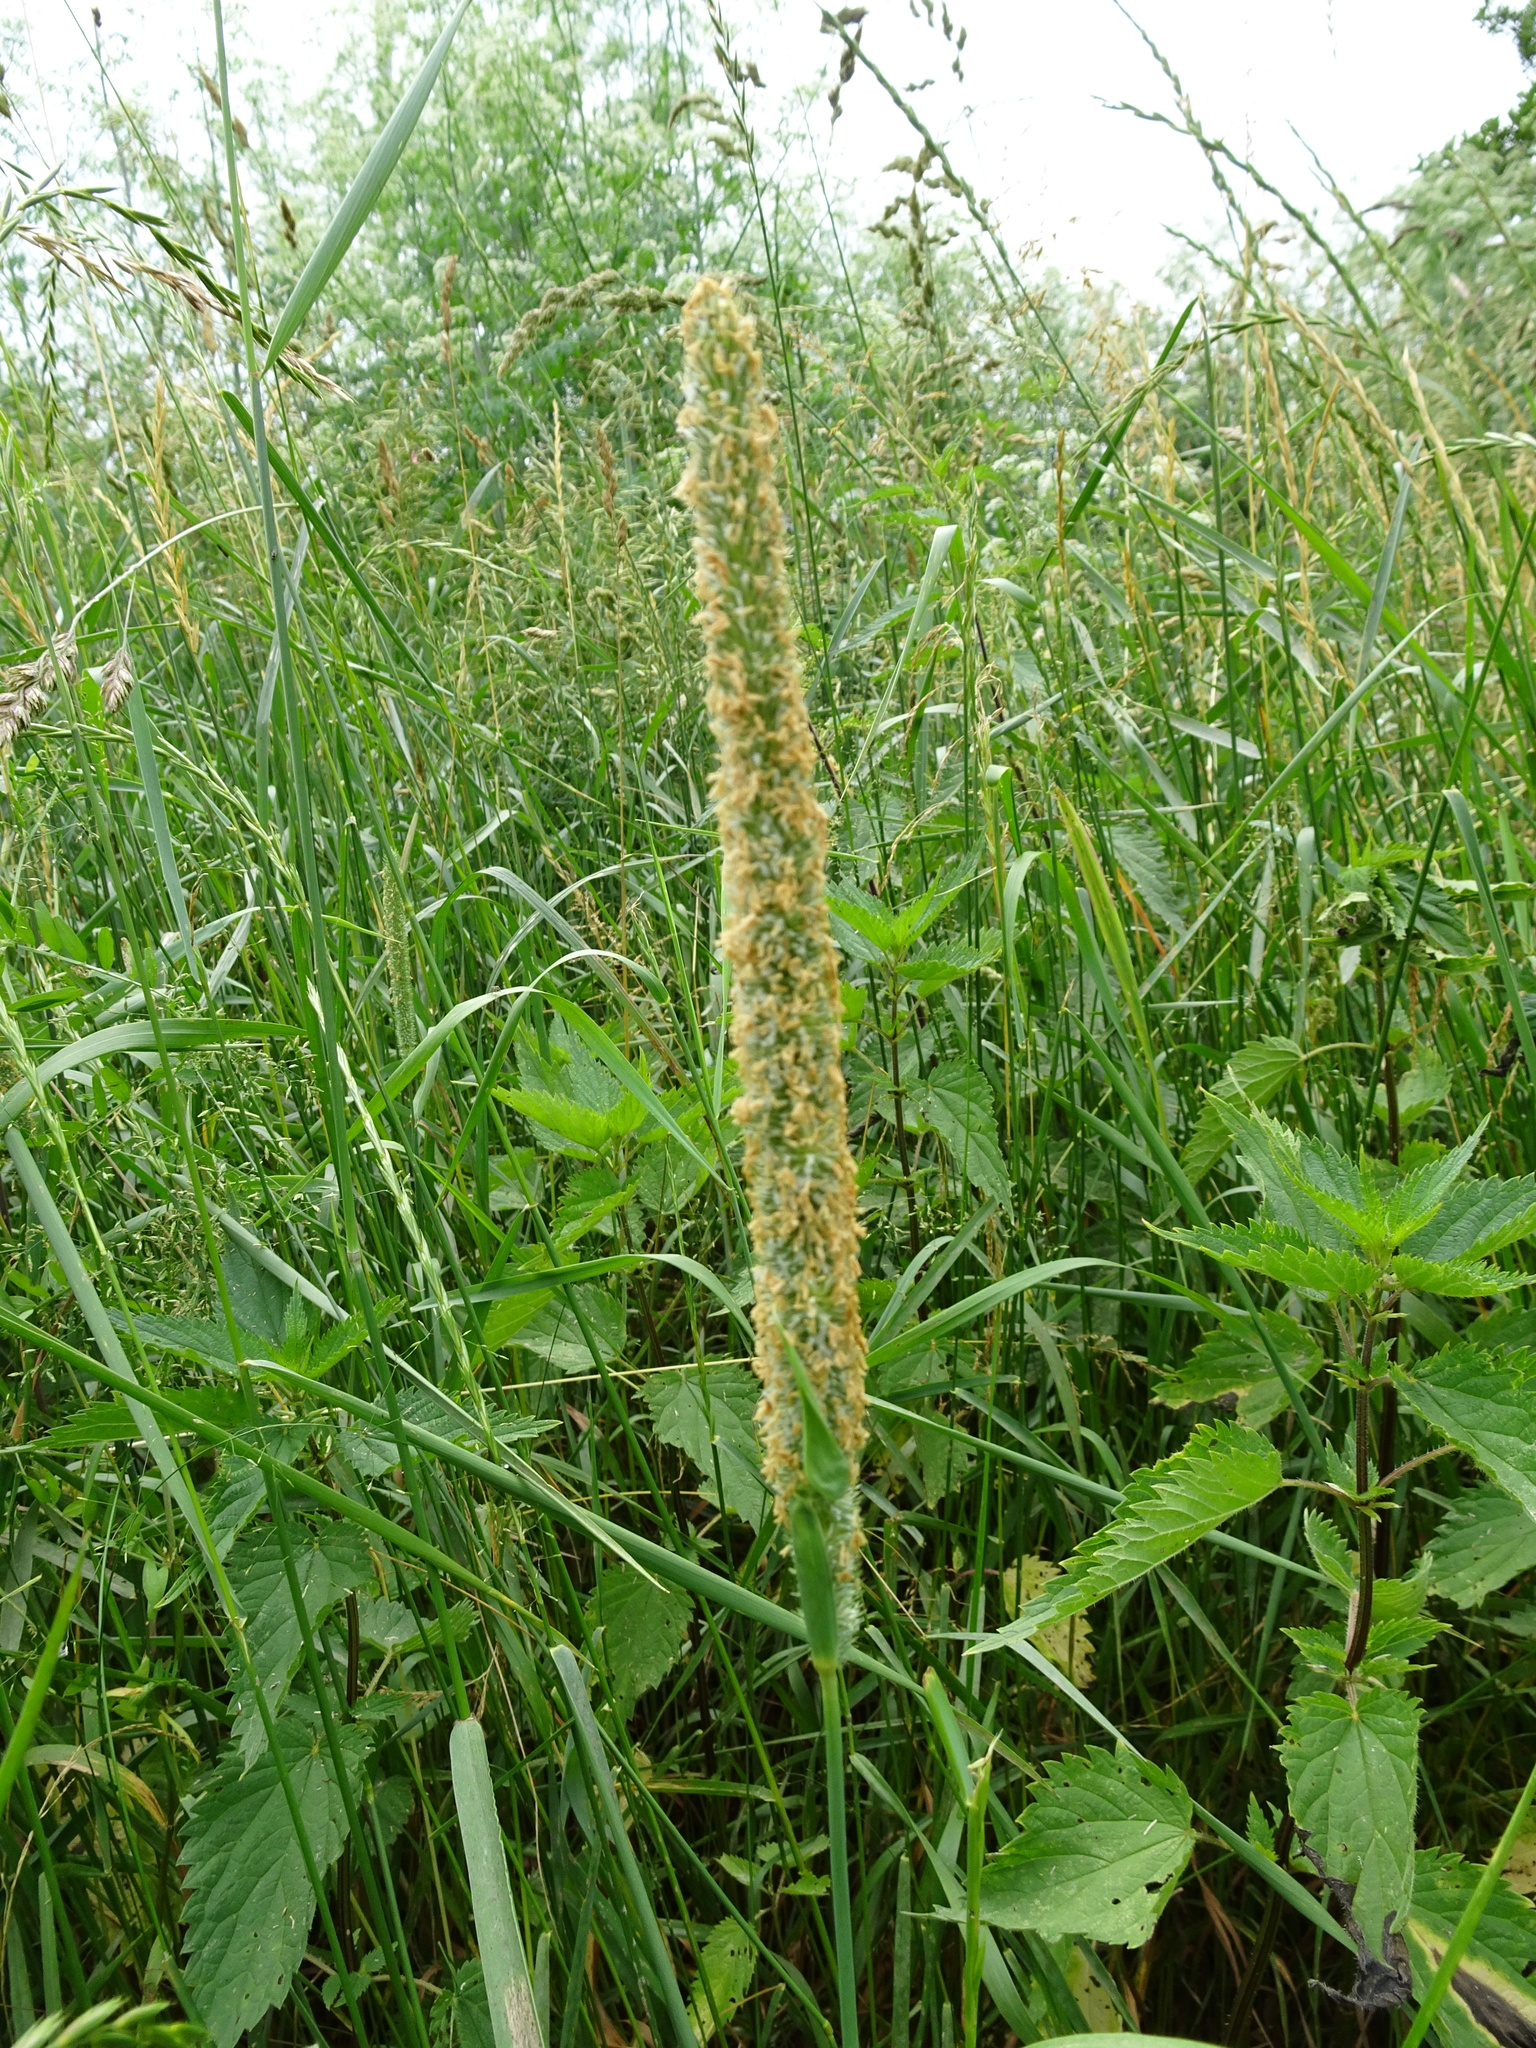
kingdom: Plantae
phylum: Tracheophyta
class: Liliopsida
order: Poales
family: Poaceae
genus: Phleum
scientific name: Phleum pratense
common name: Timothy grass
